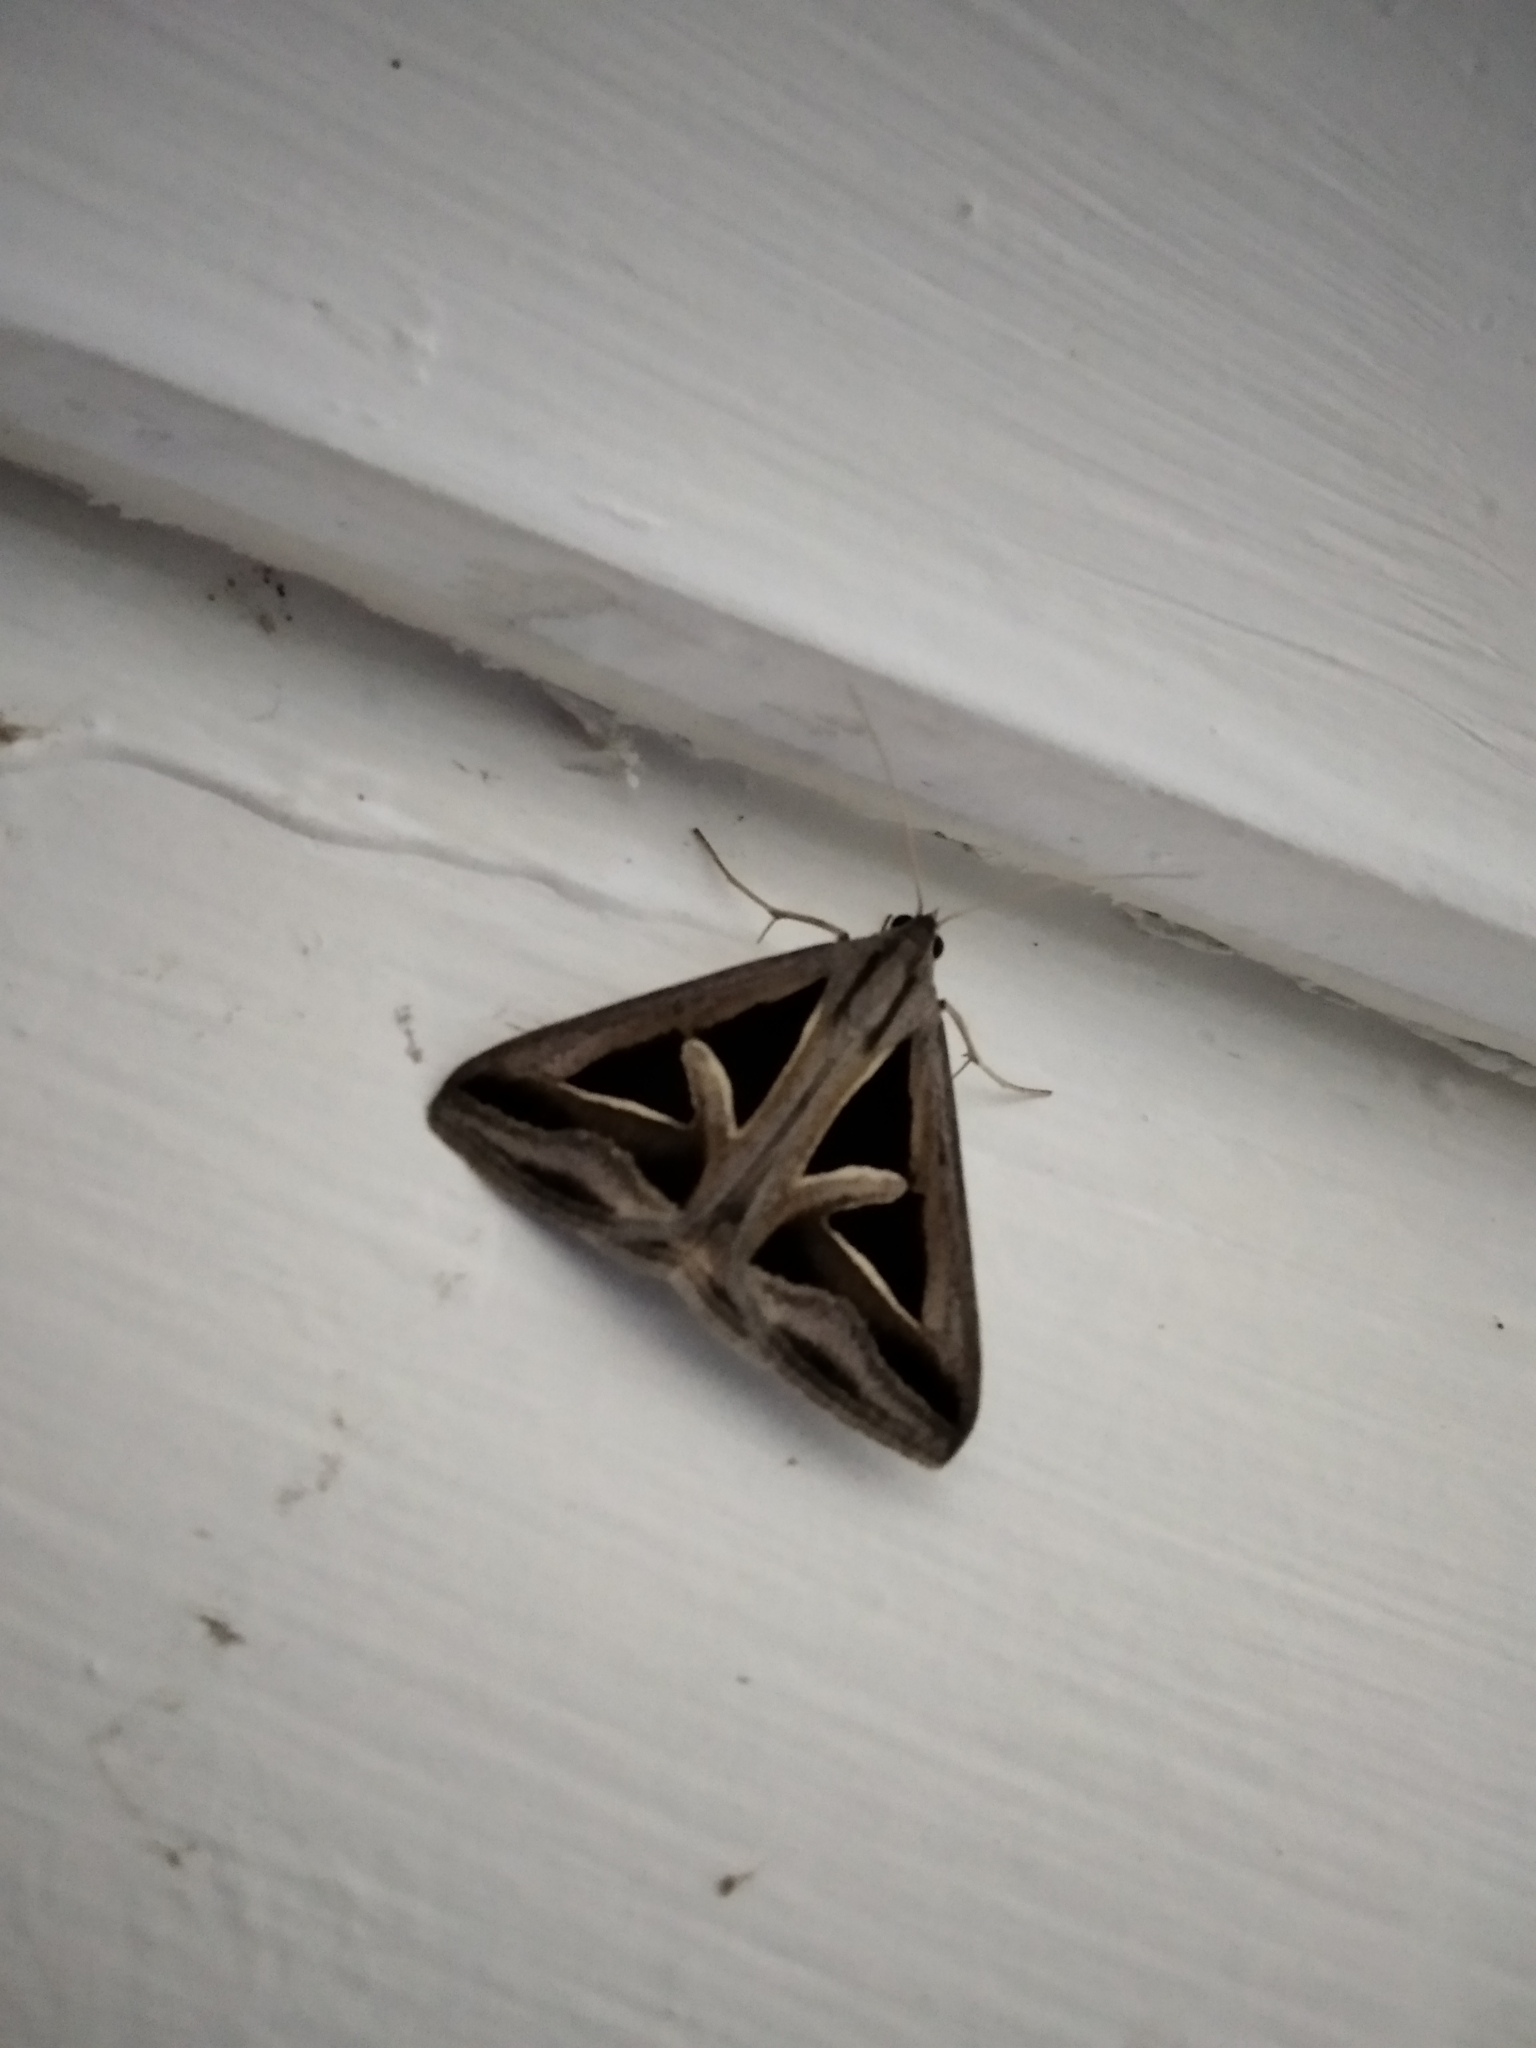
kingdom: Animalia
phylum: Arthropoda
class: Insecta
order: Lepidoptera
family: Erebidae
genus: Trigonodes
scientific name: Trigonodes hyppasia
